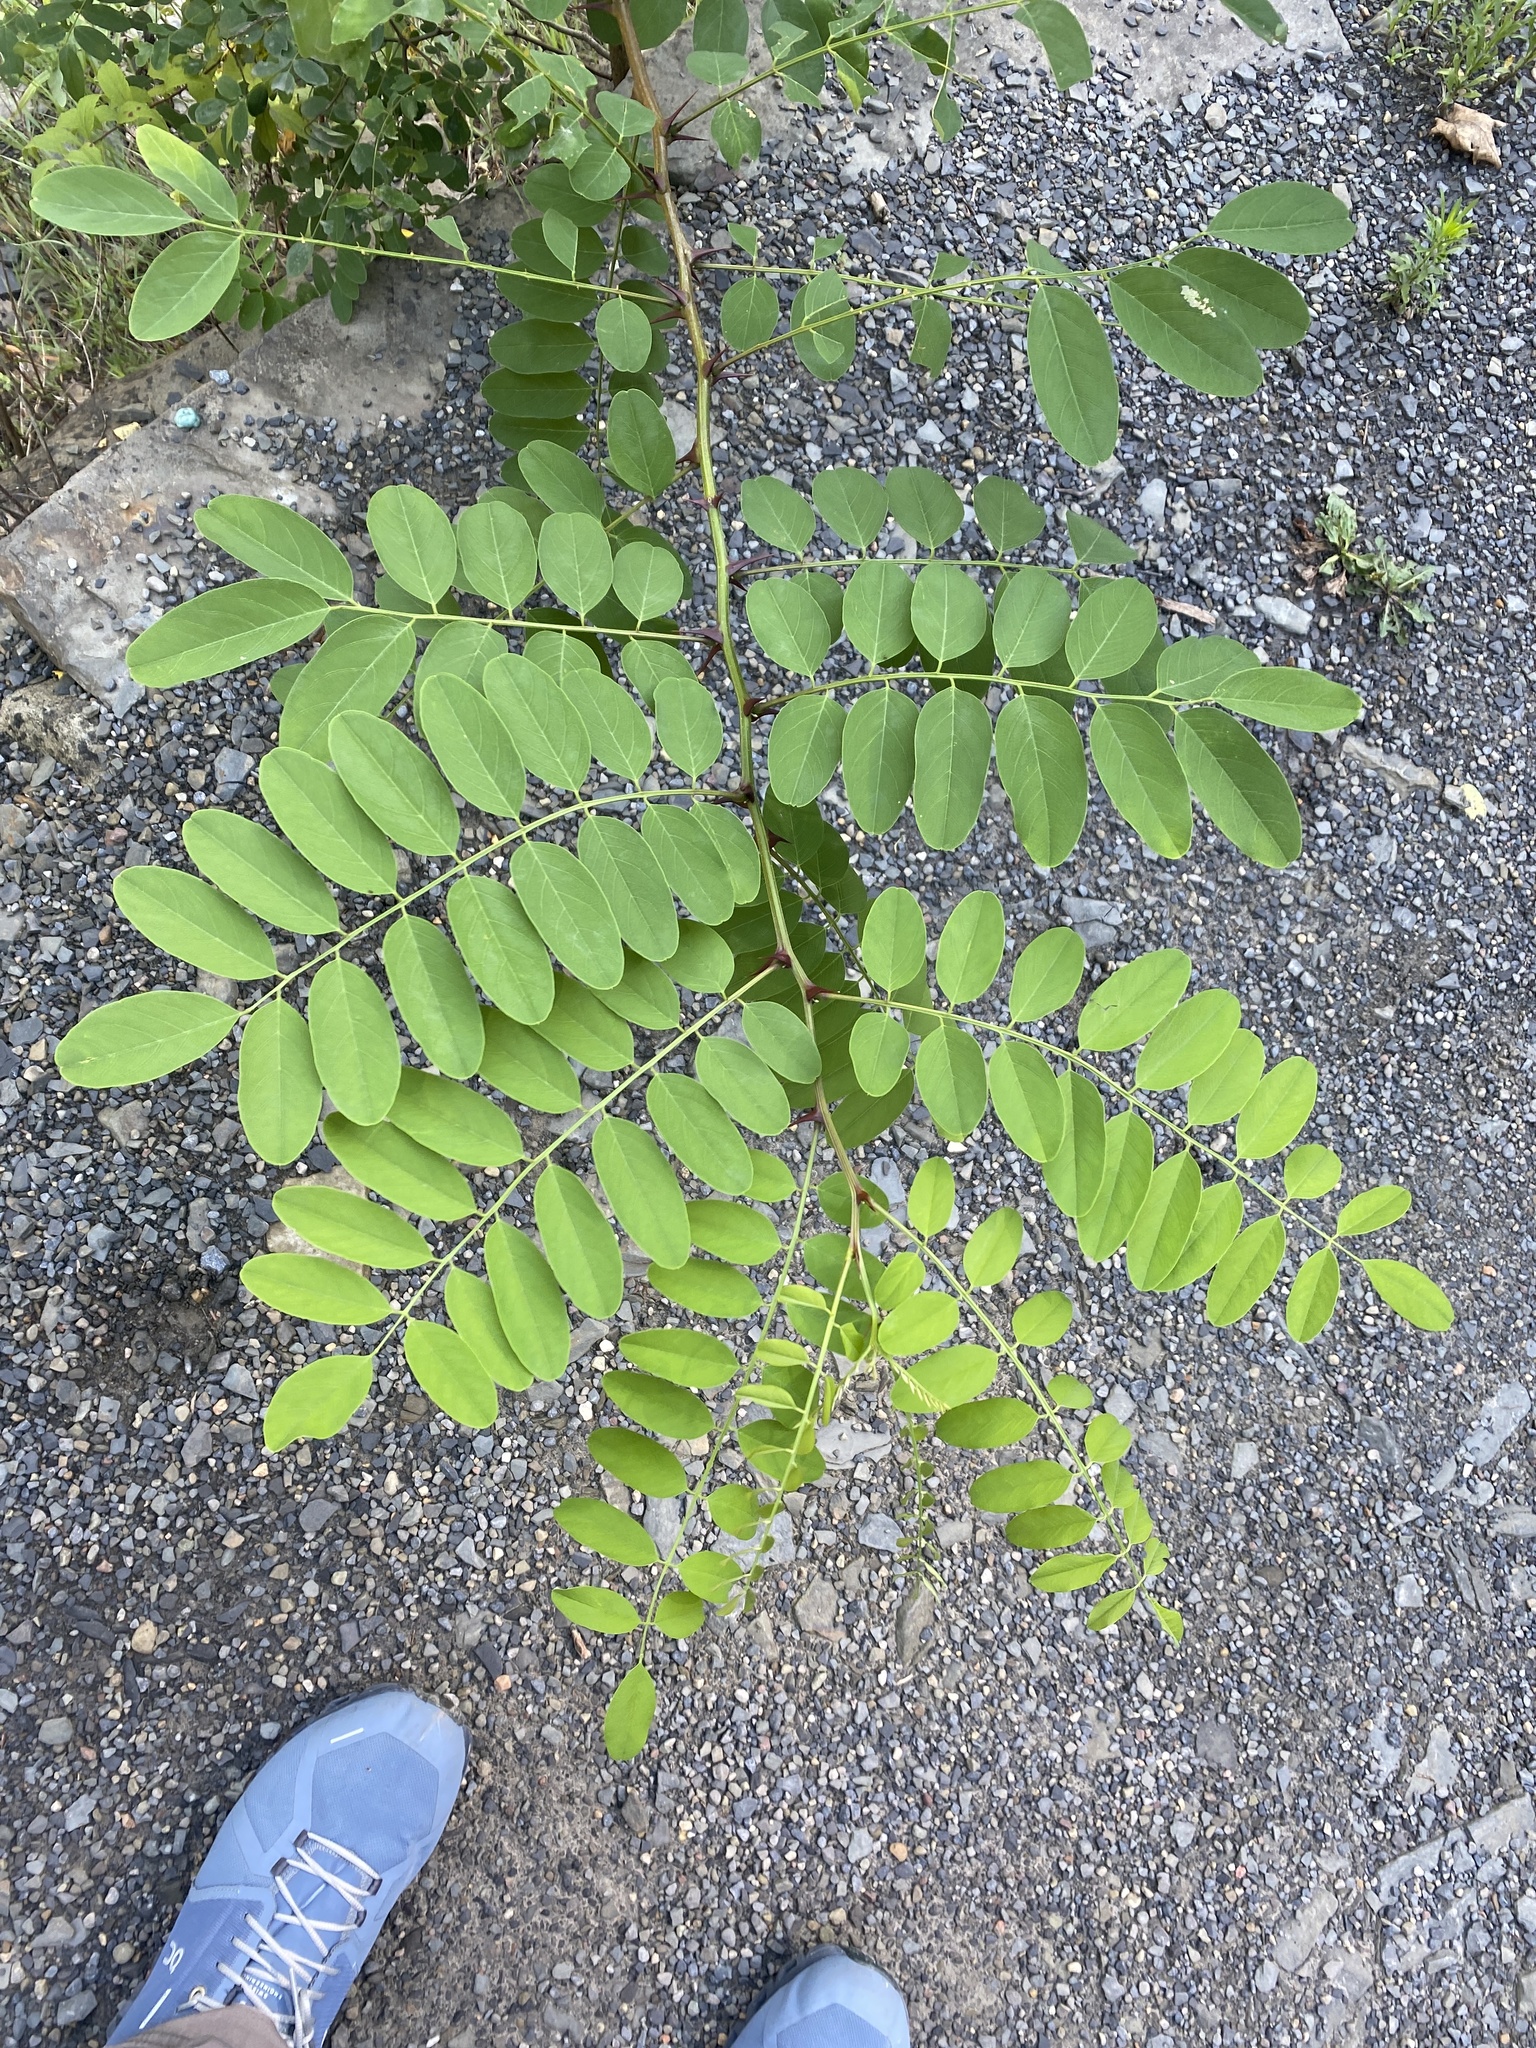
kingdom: Plantae
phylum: Tracheophyta
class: Magnoliopsida
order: Fabales
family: Fabaceae
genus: Robinia
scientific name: Robinia pseudoacacia
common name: Black locust
